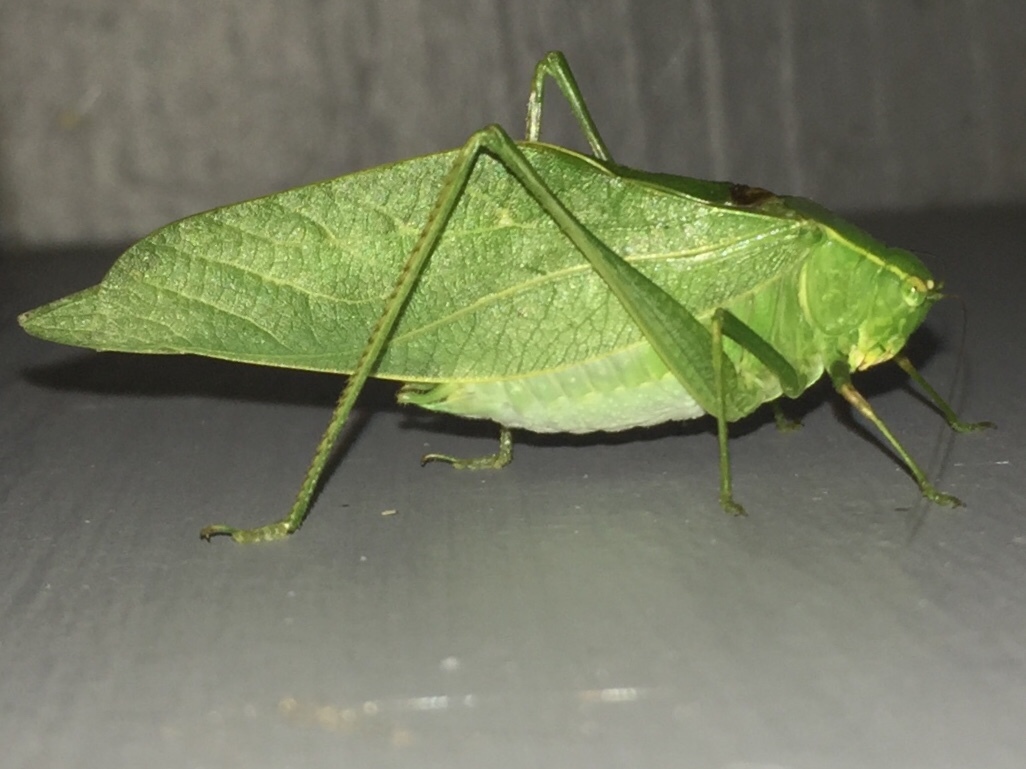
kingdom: Animalia
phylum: Arthropoda
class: Insecta
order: Orthoptera
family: Tettigoniidae
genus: Microcentrum
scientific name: Microcentrum retinerve
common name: Angular-winged katydid
